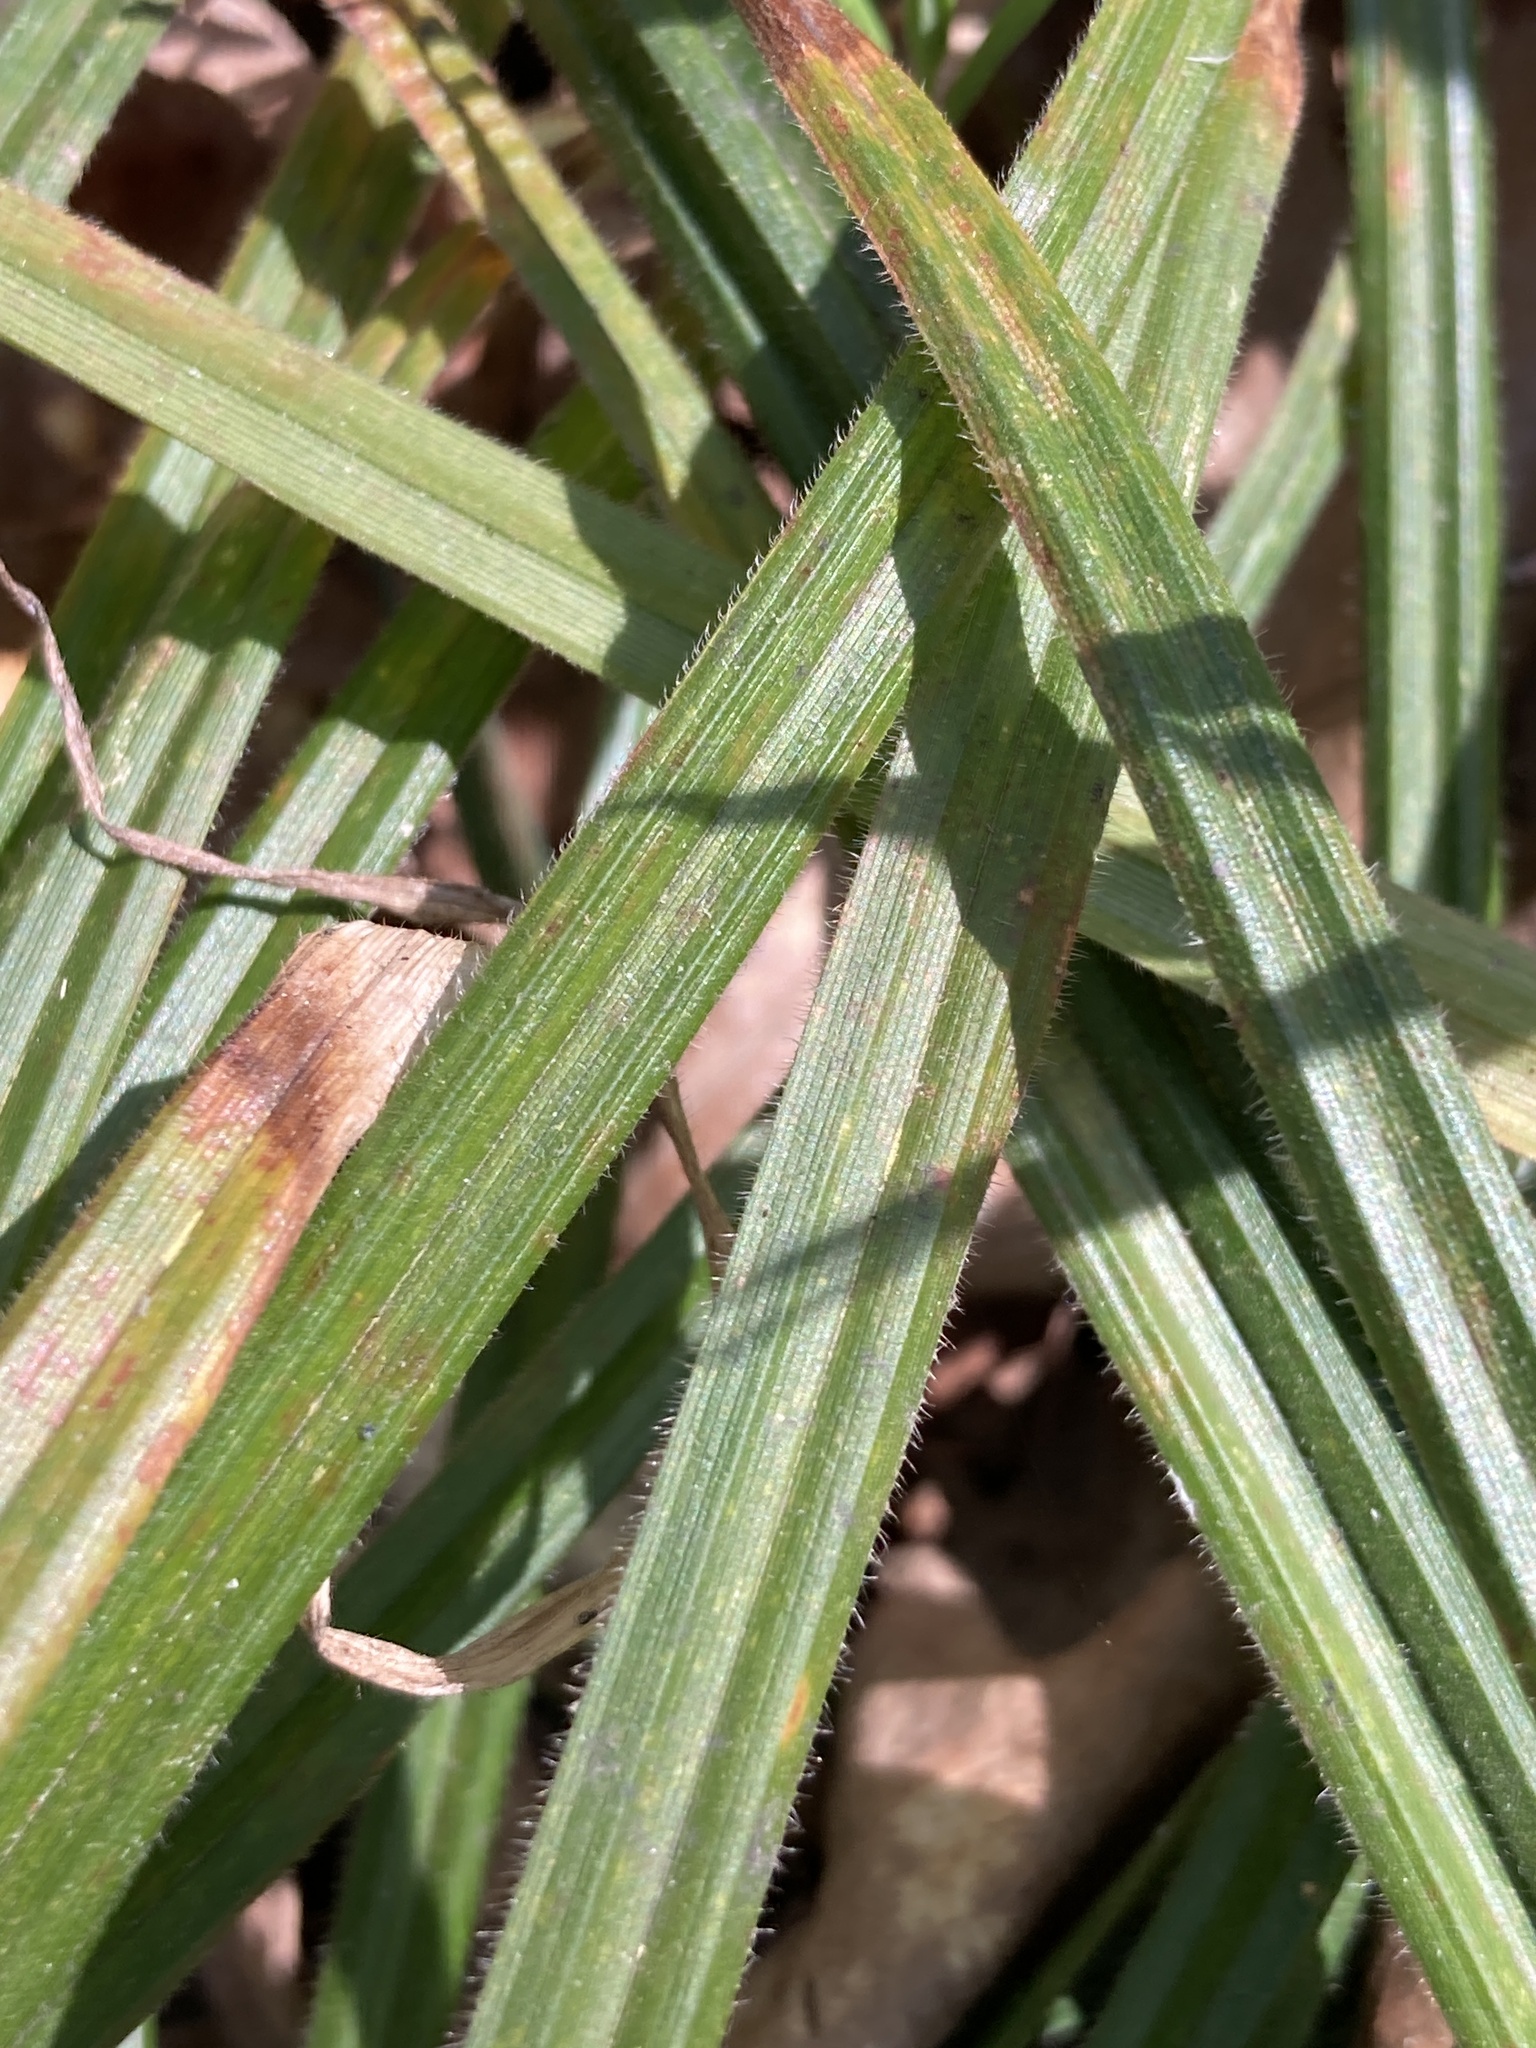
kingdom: Plantae
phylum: Tracheophyta
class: Liliopsida
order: Poales
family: Cyperaceae
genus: Carex
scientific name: Carex pilosa
